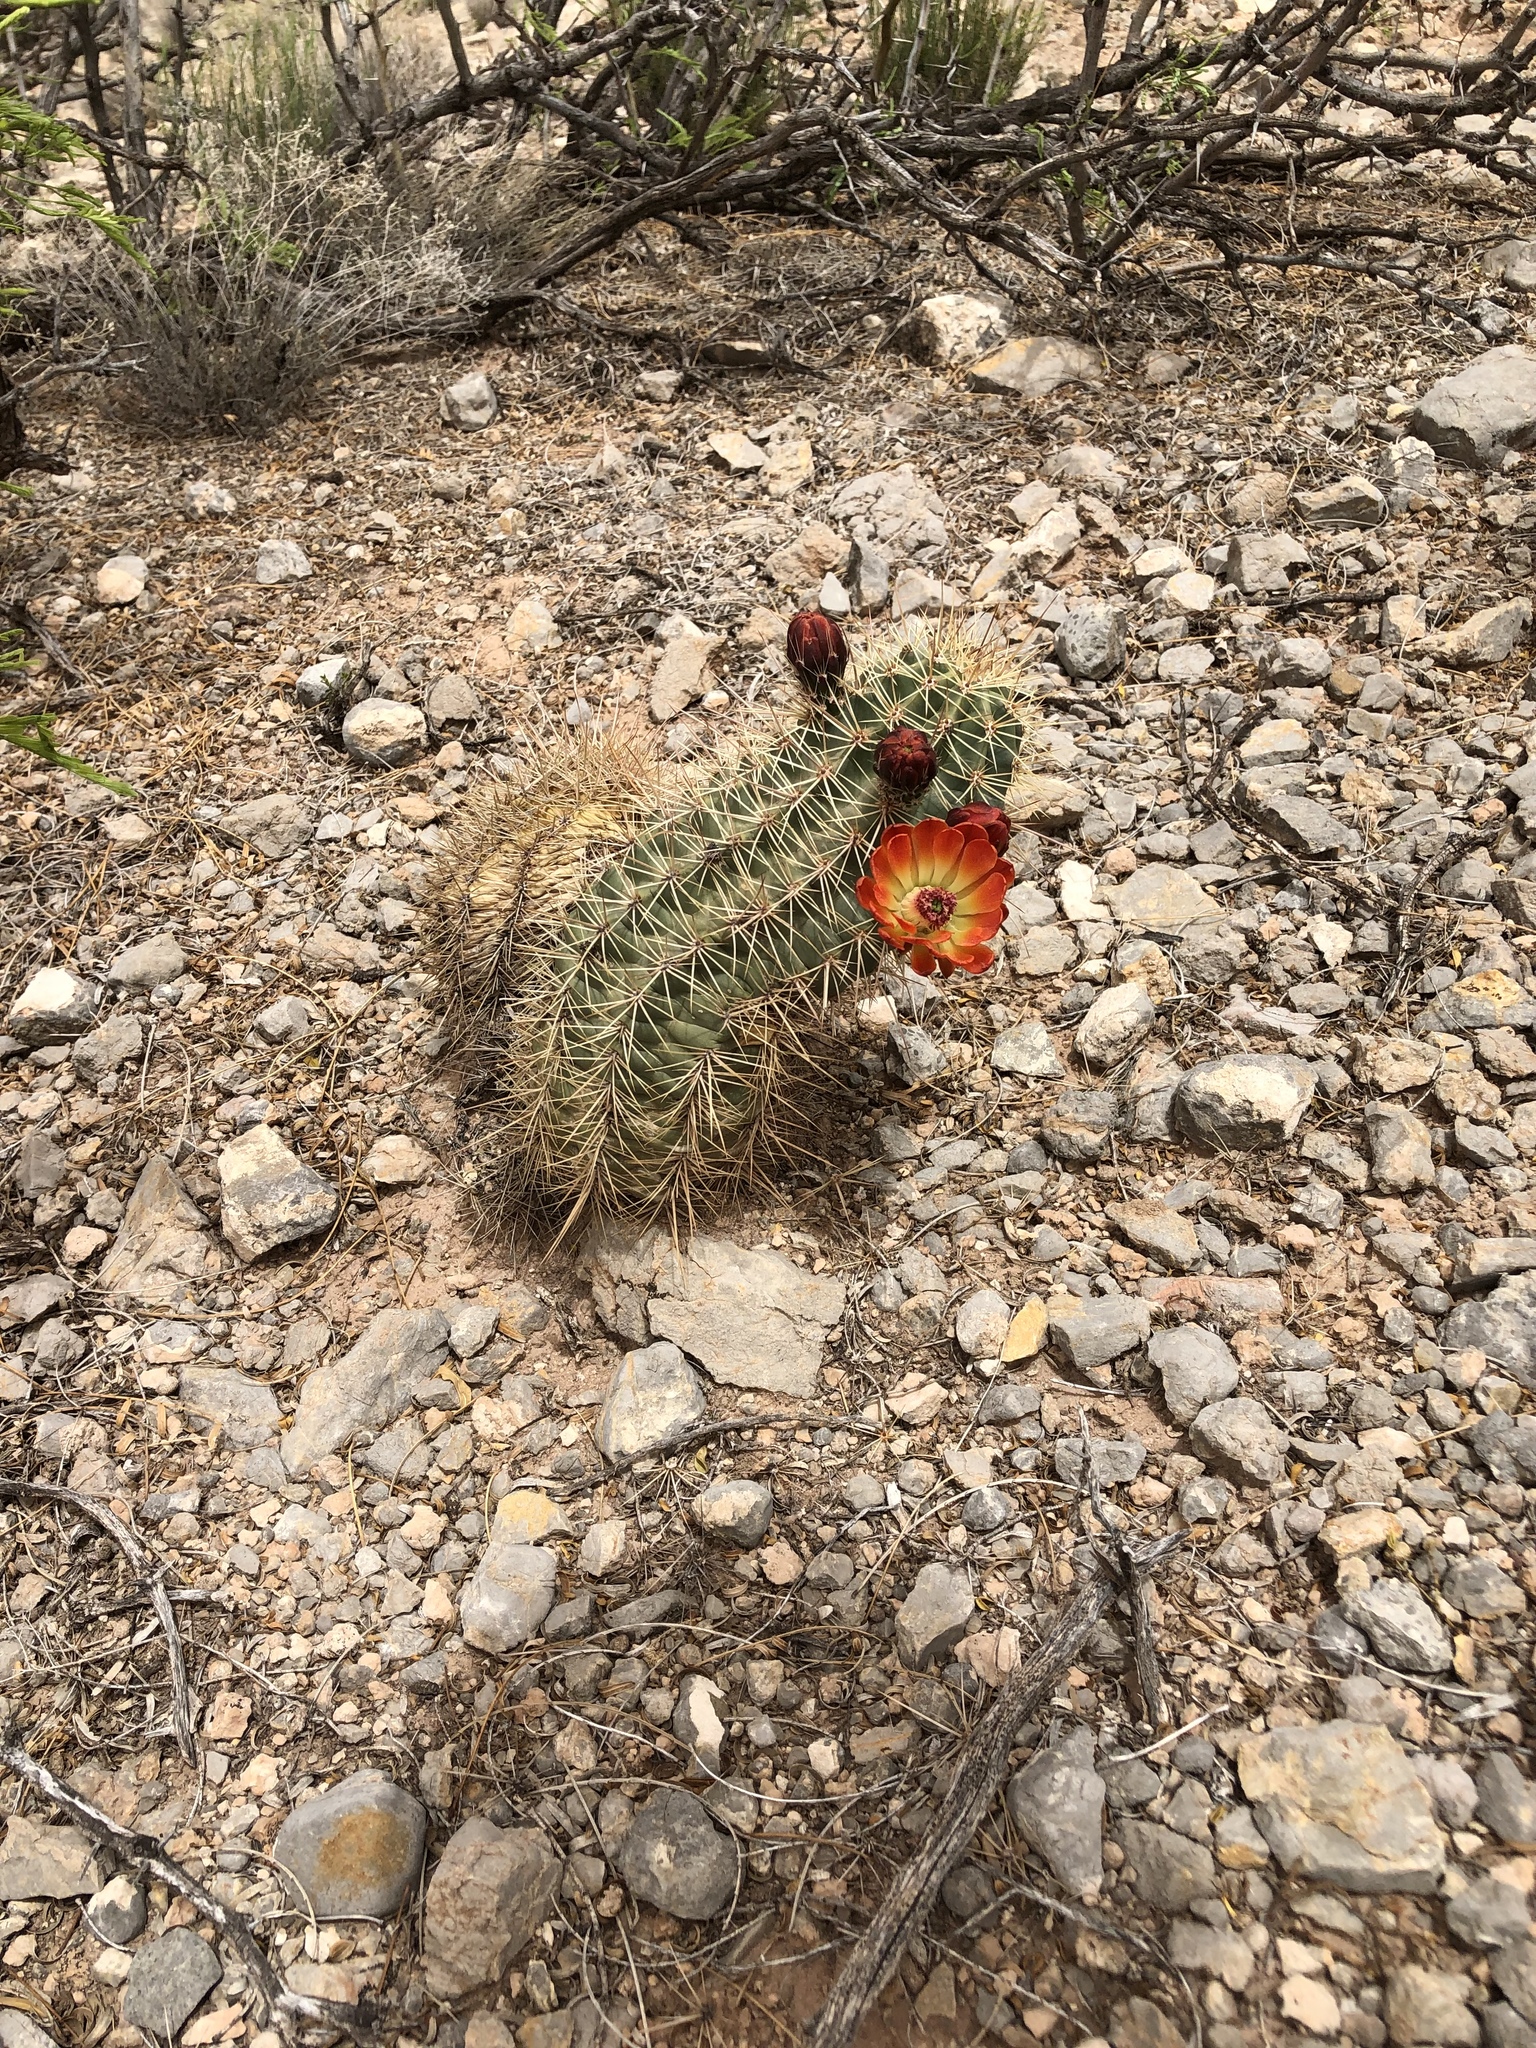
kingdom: Plantae
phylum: Tracheophyta
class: Magnoliopsida
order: Caryophyllales
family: Cactaceae
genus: Echinocereus
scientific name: Echinocereus coccineus
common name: Scarlet hedgehog cactus
